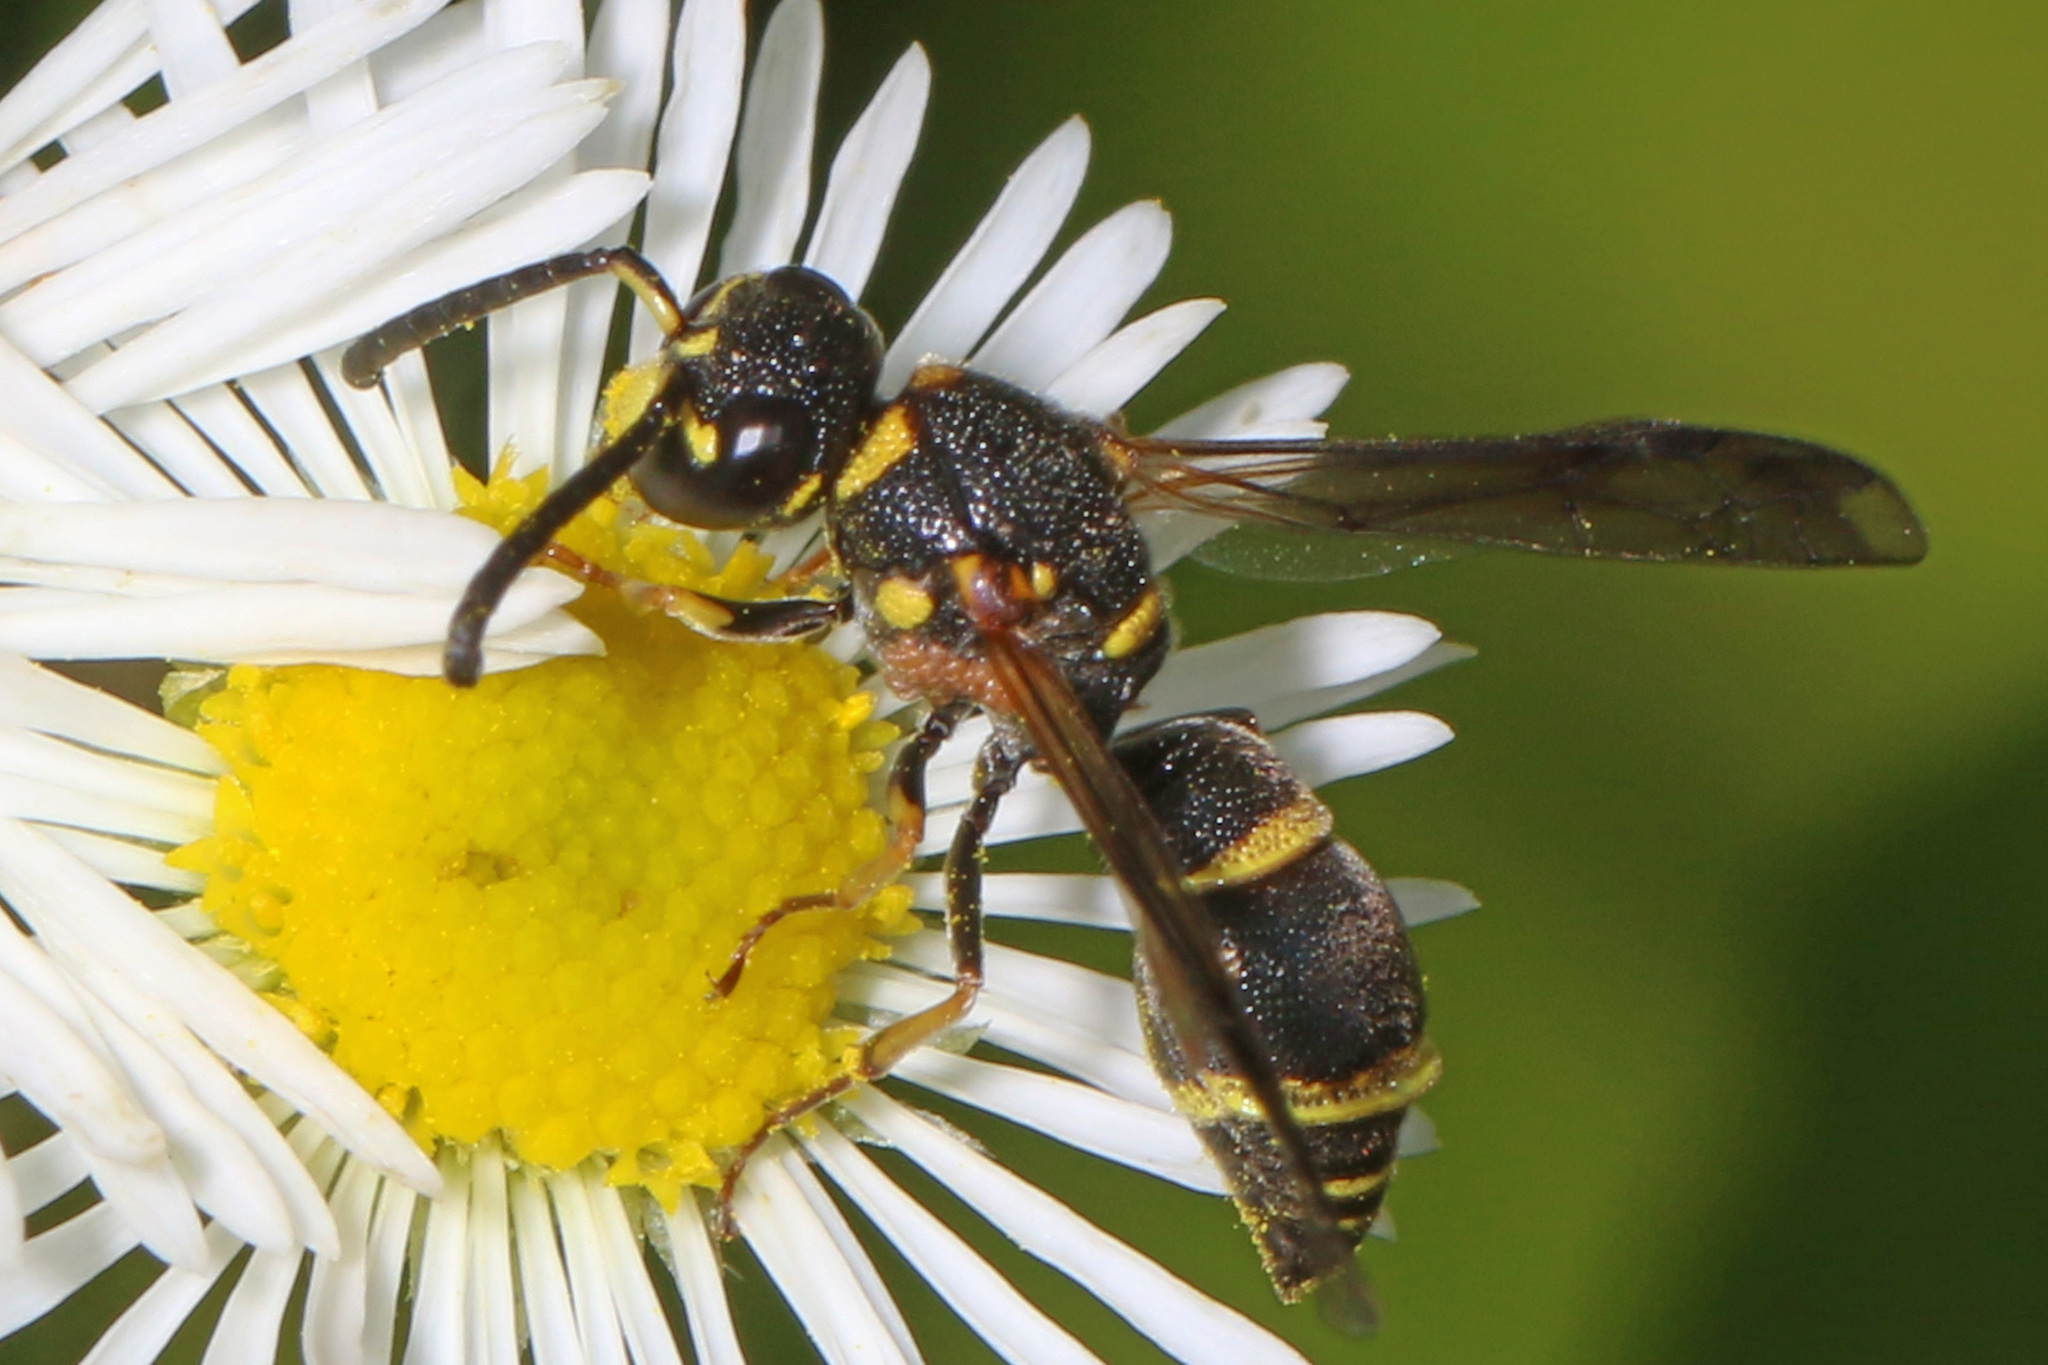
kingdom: Animalia
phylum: Arthropoda
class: Insecta
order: Hymenoptera
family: Eumenidae
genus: Parancistrocerus
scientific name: Parancistrocerus pedestris
